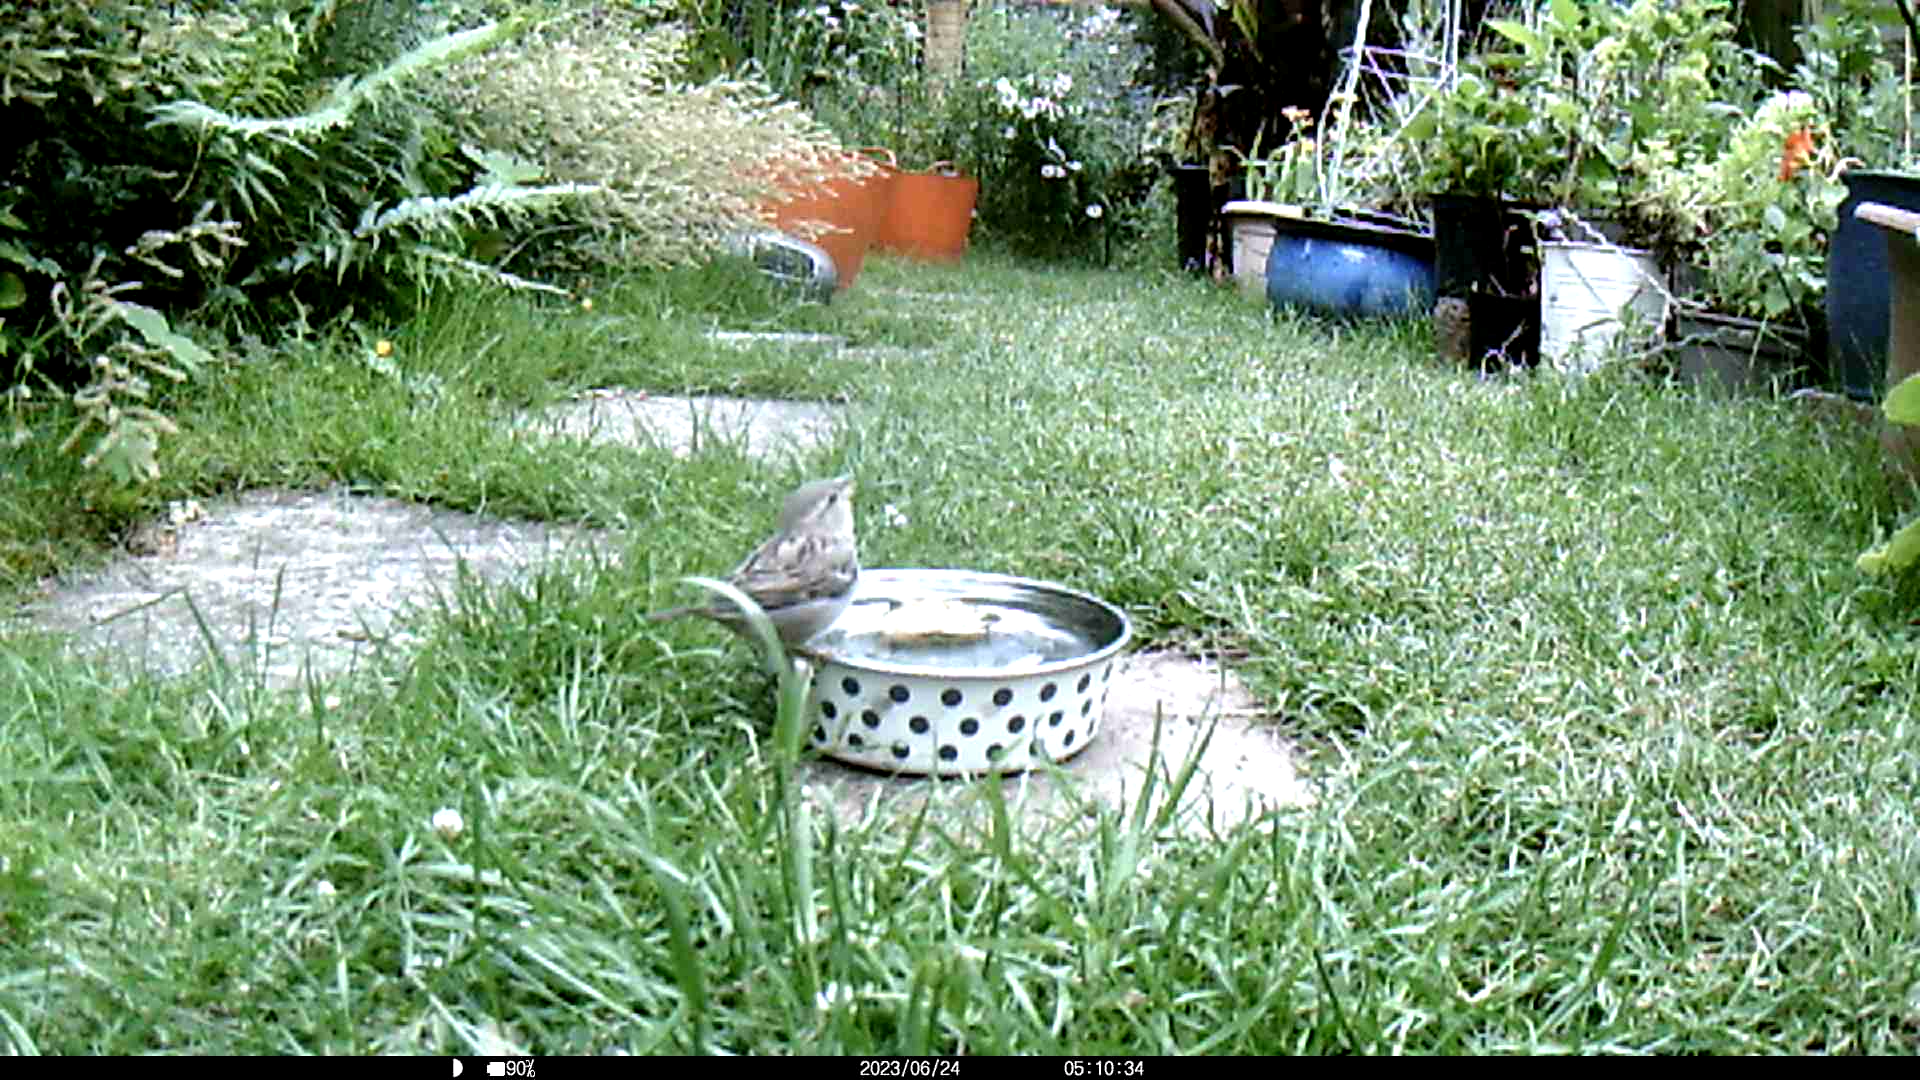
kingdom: Animalia
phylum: Chordata
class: Aves
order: Passeriformes
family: Passeridae
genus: Passer
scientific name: Passer domesticus
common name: House sparrow
